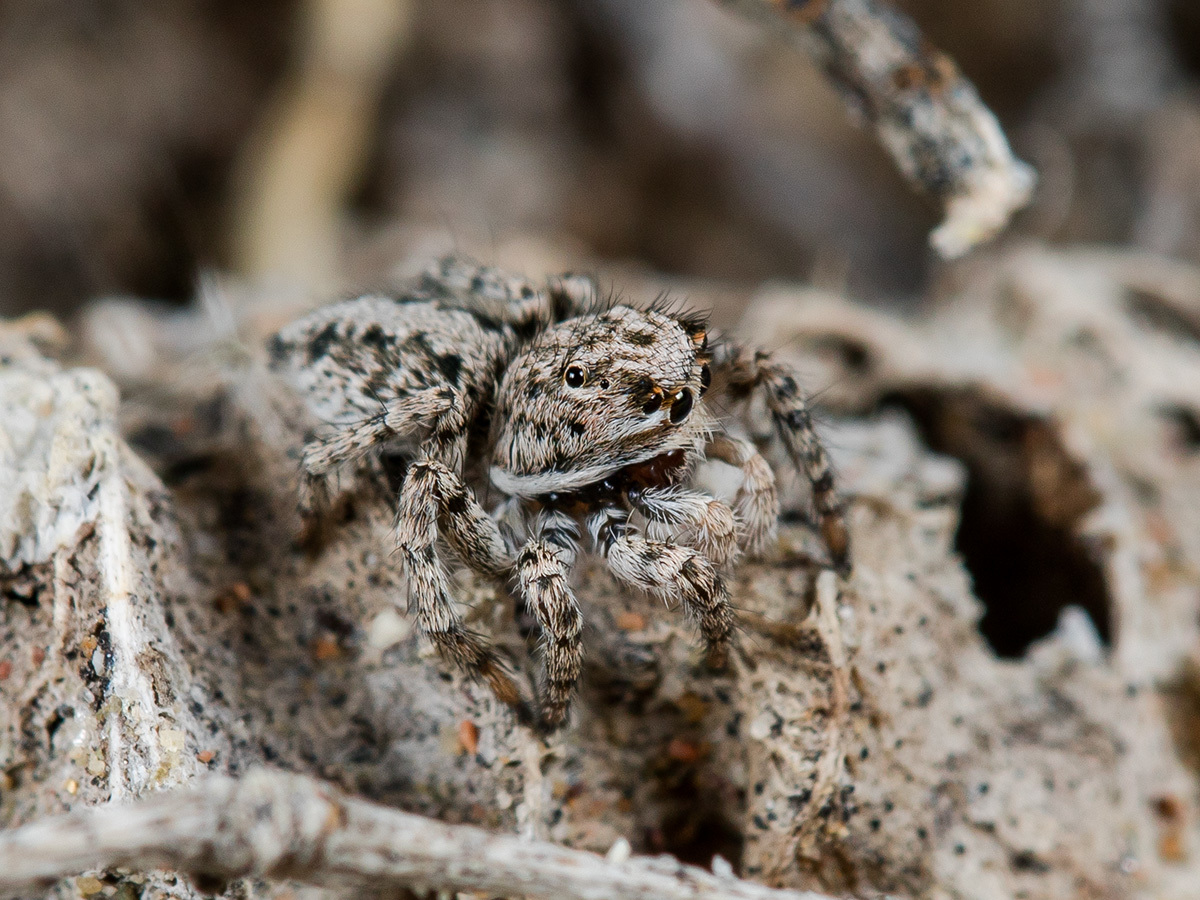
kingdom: Animalia
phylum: Arthropoda
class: Arachnida
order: Araneae
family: Salticidae
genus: Aelurillus
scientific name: Aelurillus nenilini
